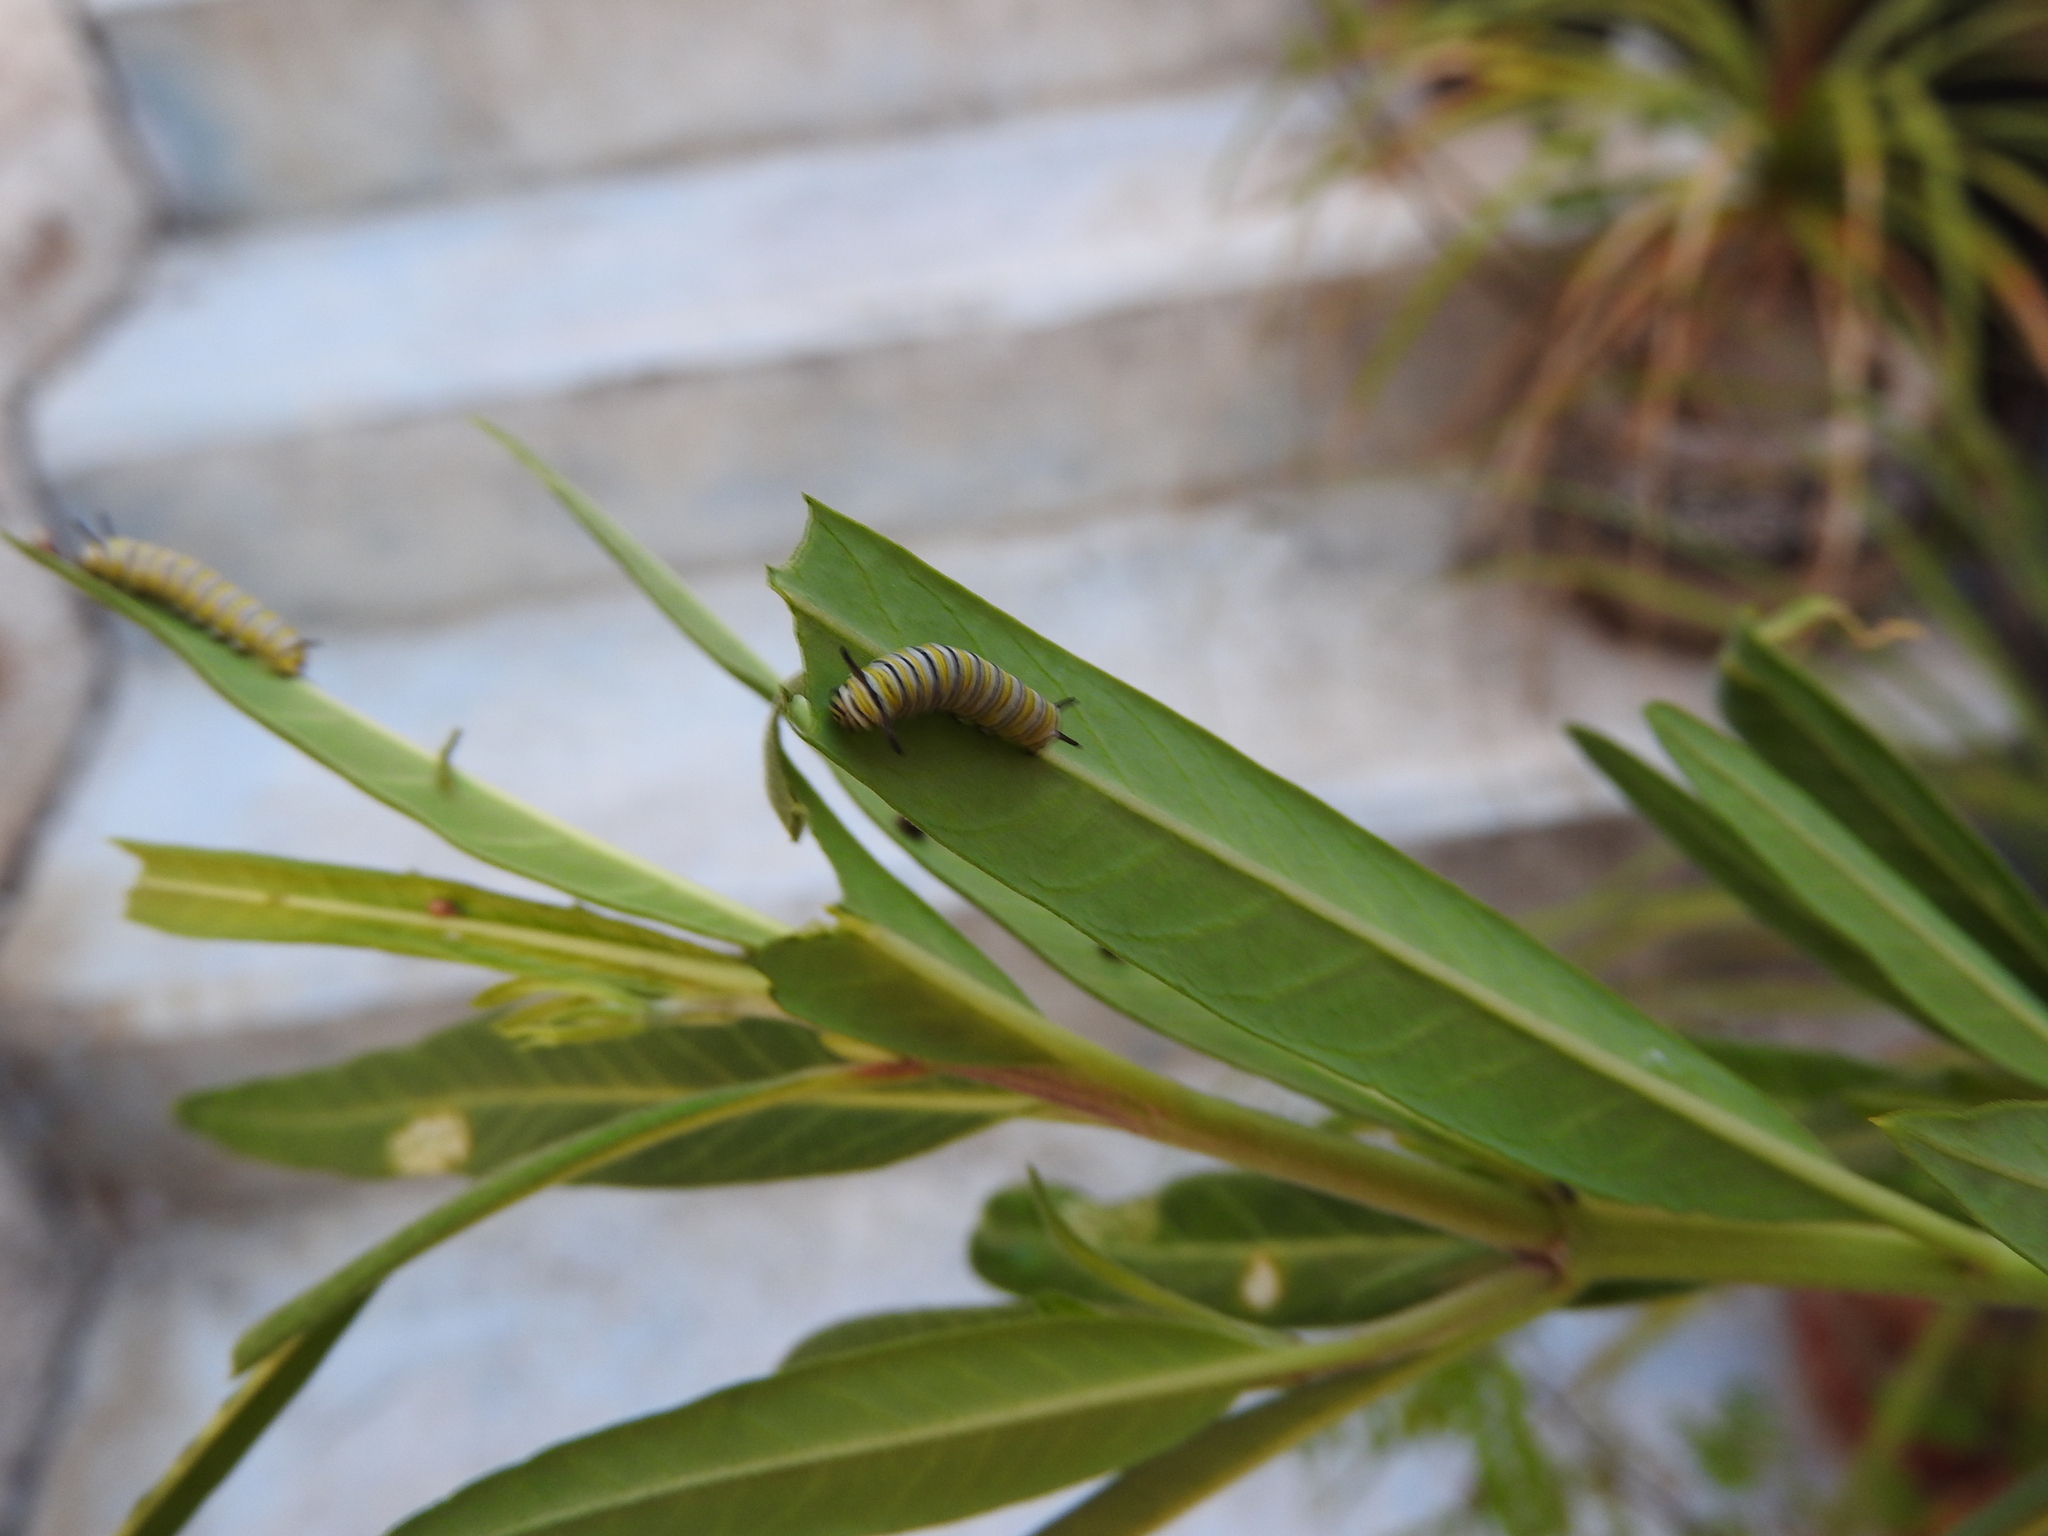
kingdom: Animalia
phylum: Arthropoda
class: Insecta
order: Lepidoptera
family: Nymphalidae
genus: Danaus
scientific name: Danaus plexippus
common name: Monarch
